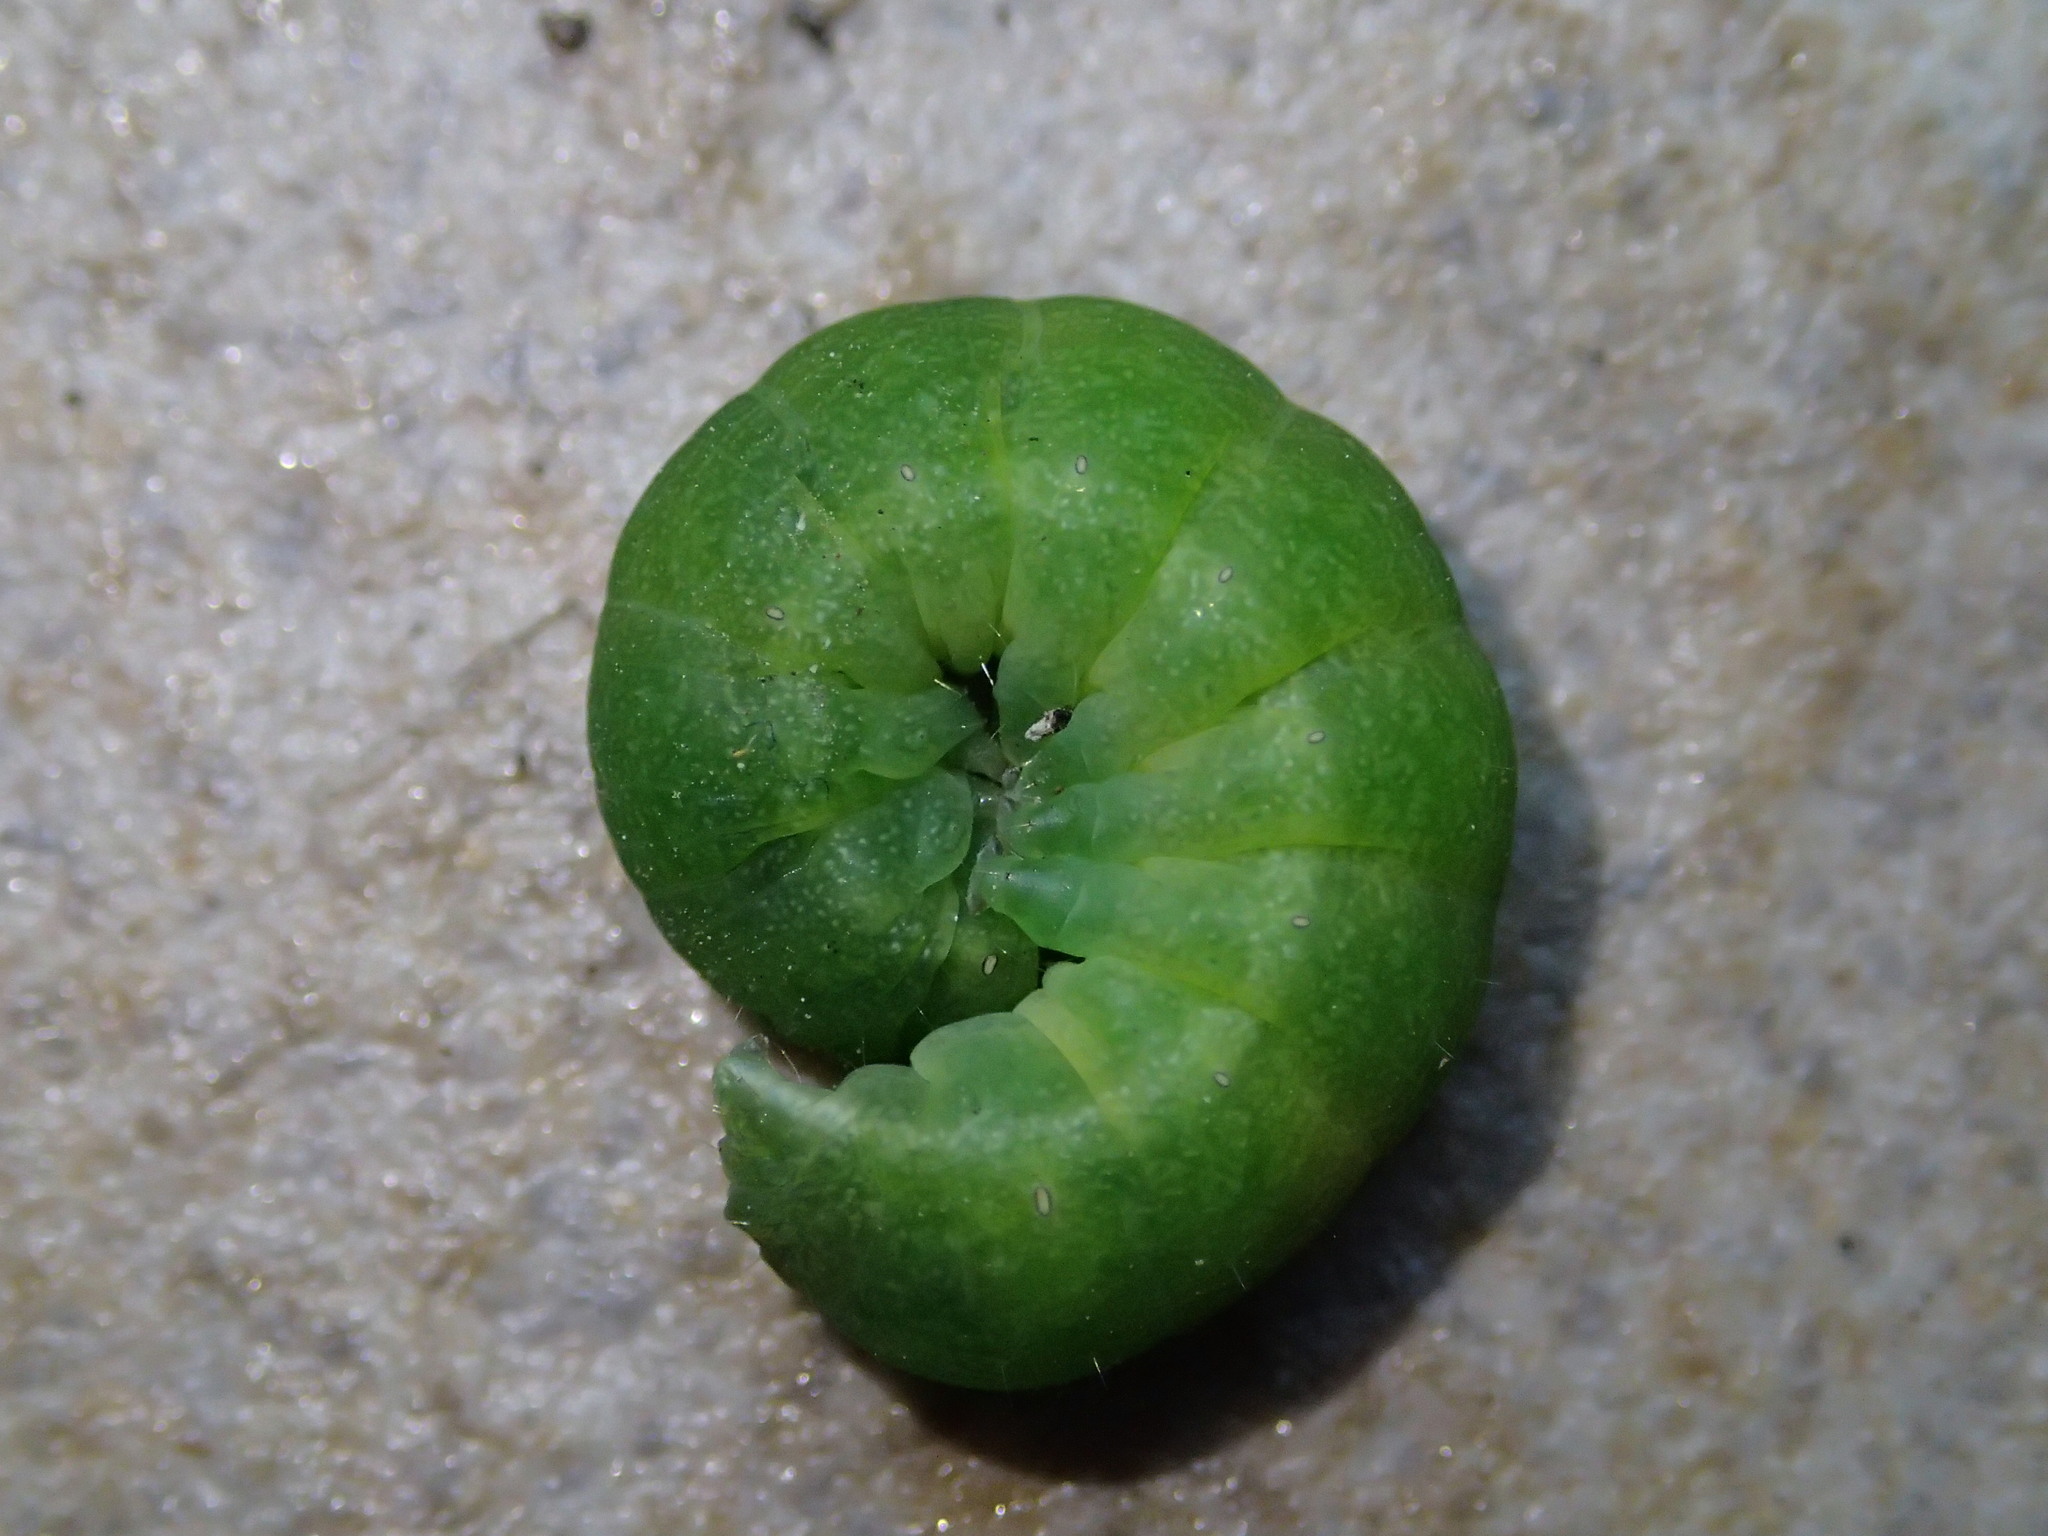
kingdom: Animalia
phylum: Arthropoda
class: Insecta
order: Lepidoptera
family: Noctuidae
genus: Phlogophora
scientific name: Phlogophora meticulosa
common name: Angle shades
